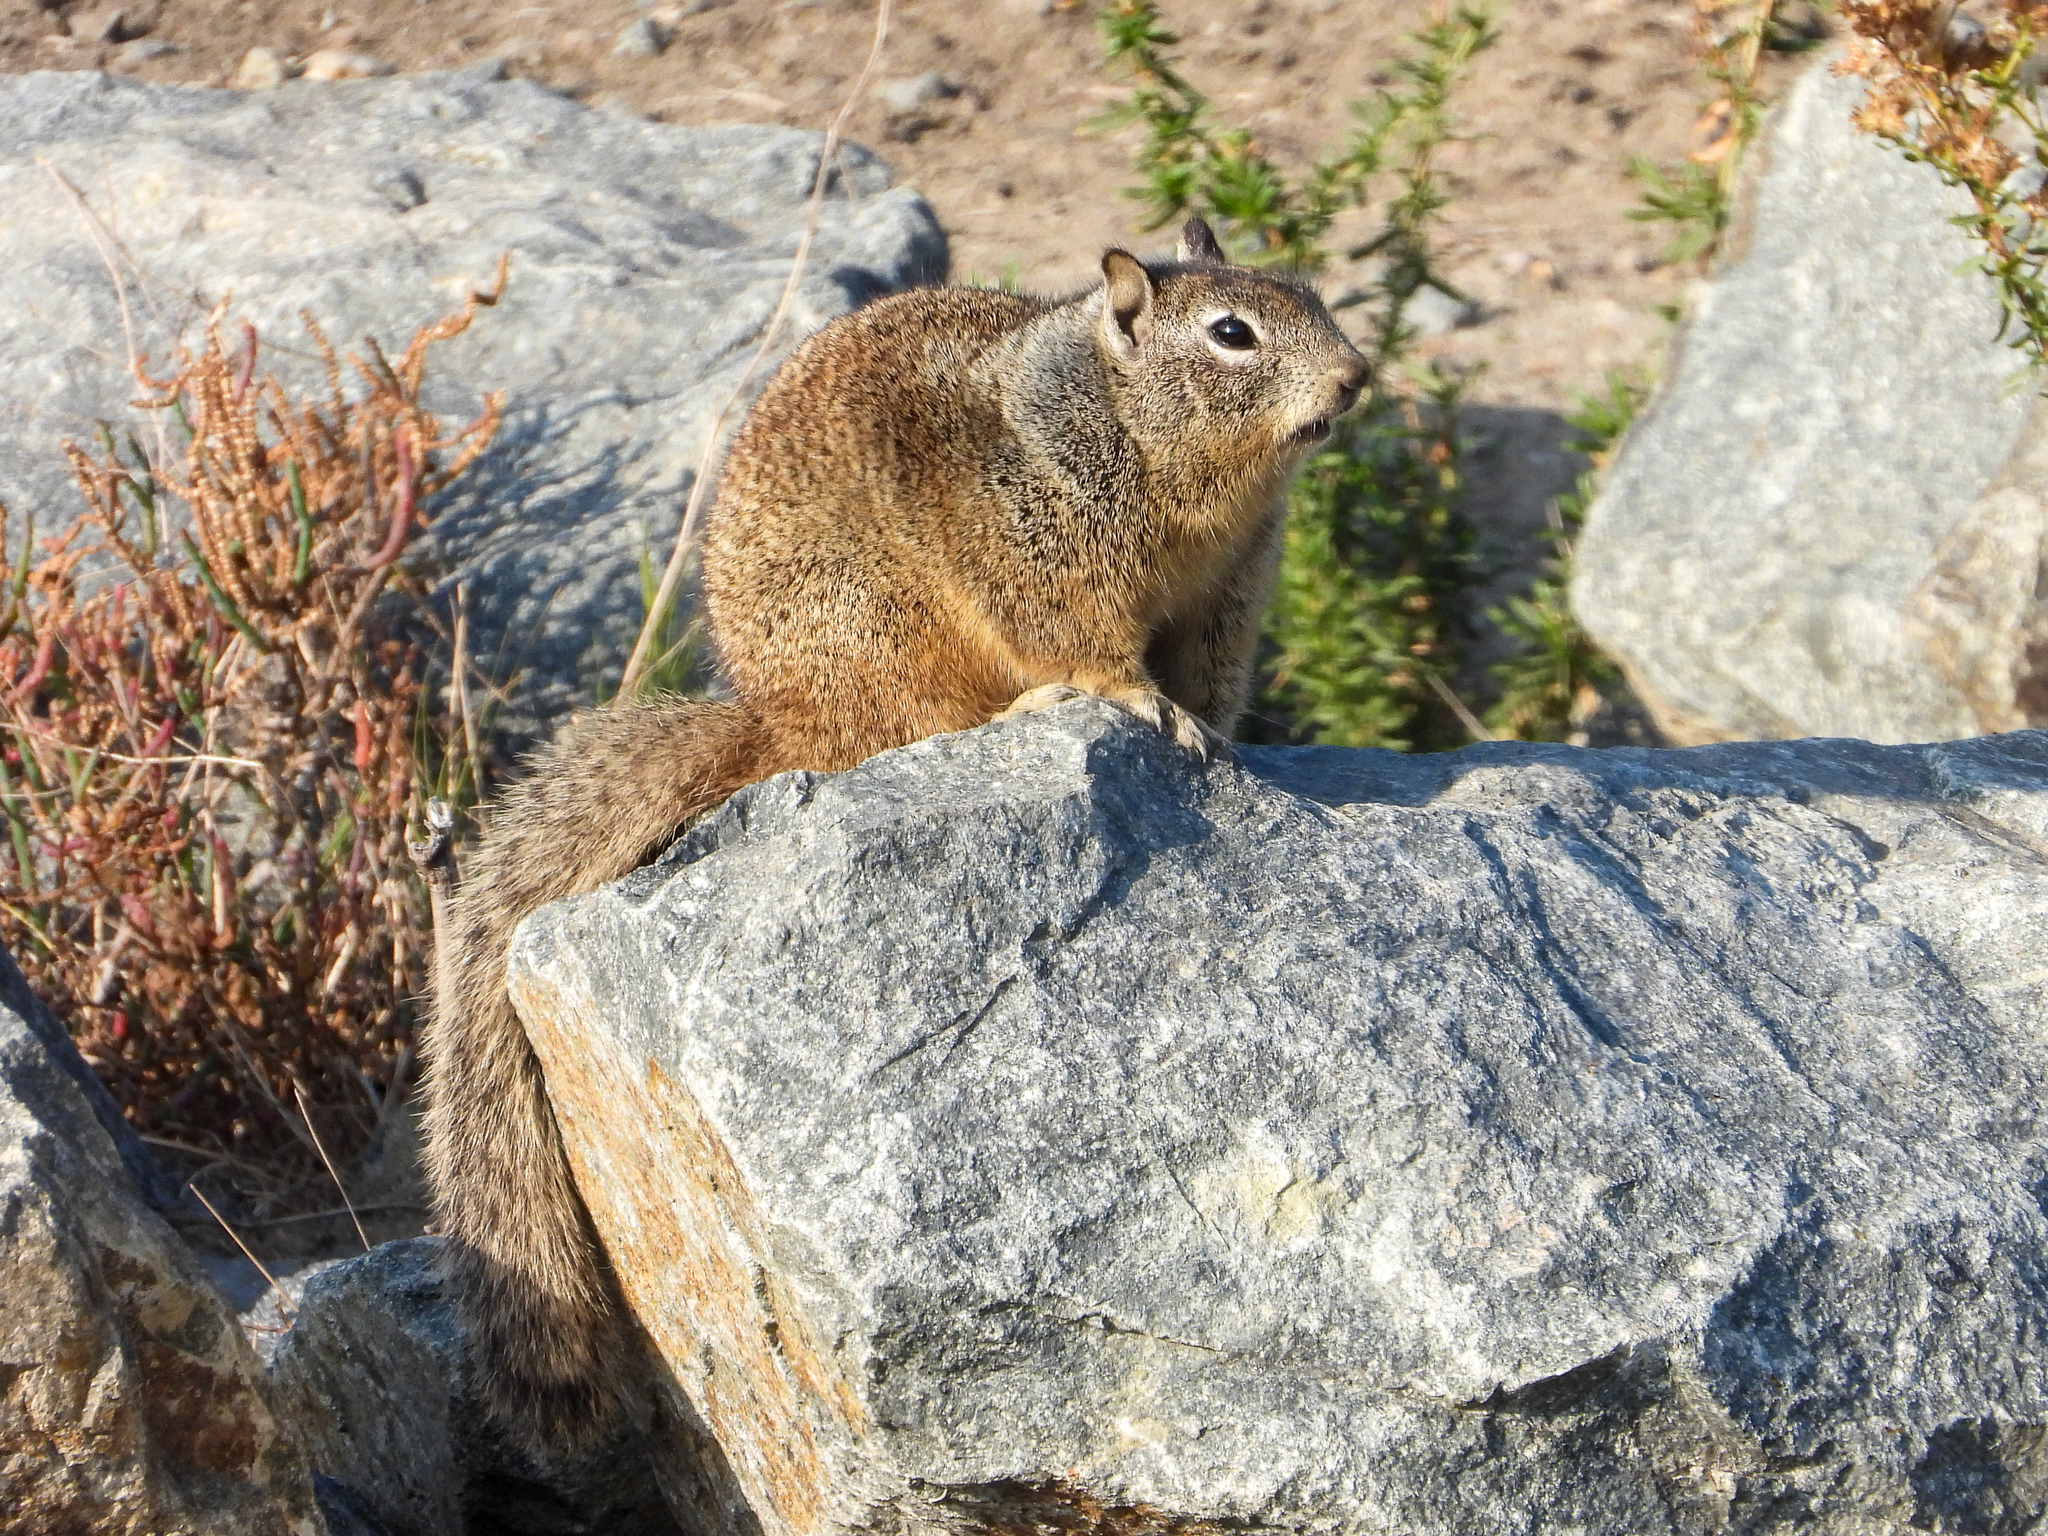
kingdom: Animalia
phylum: Chordata
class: Mammalia
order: Rodentia
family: Sciuridae
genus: Otospermophilus
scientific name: Otospermophilus beecheyi
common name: California ground squirrel
